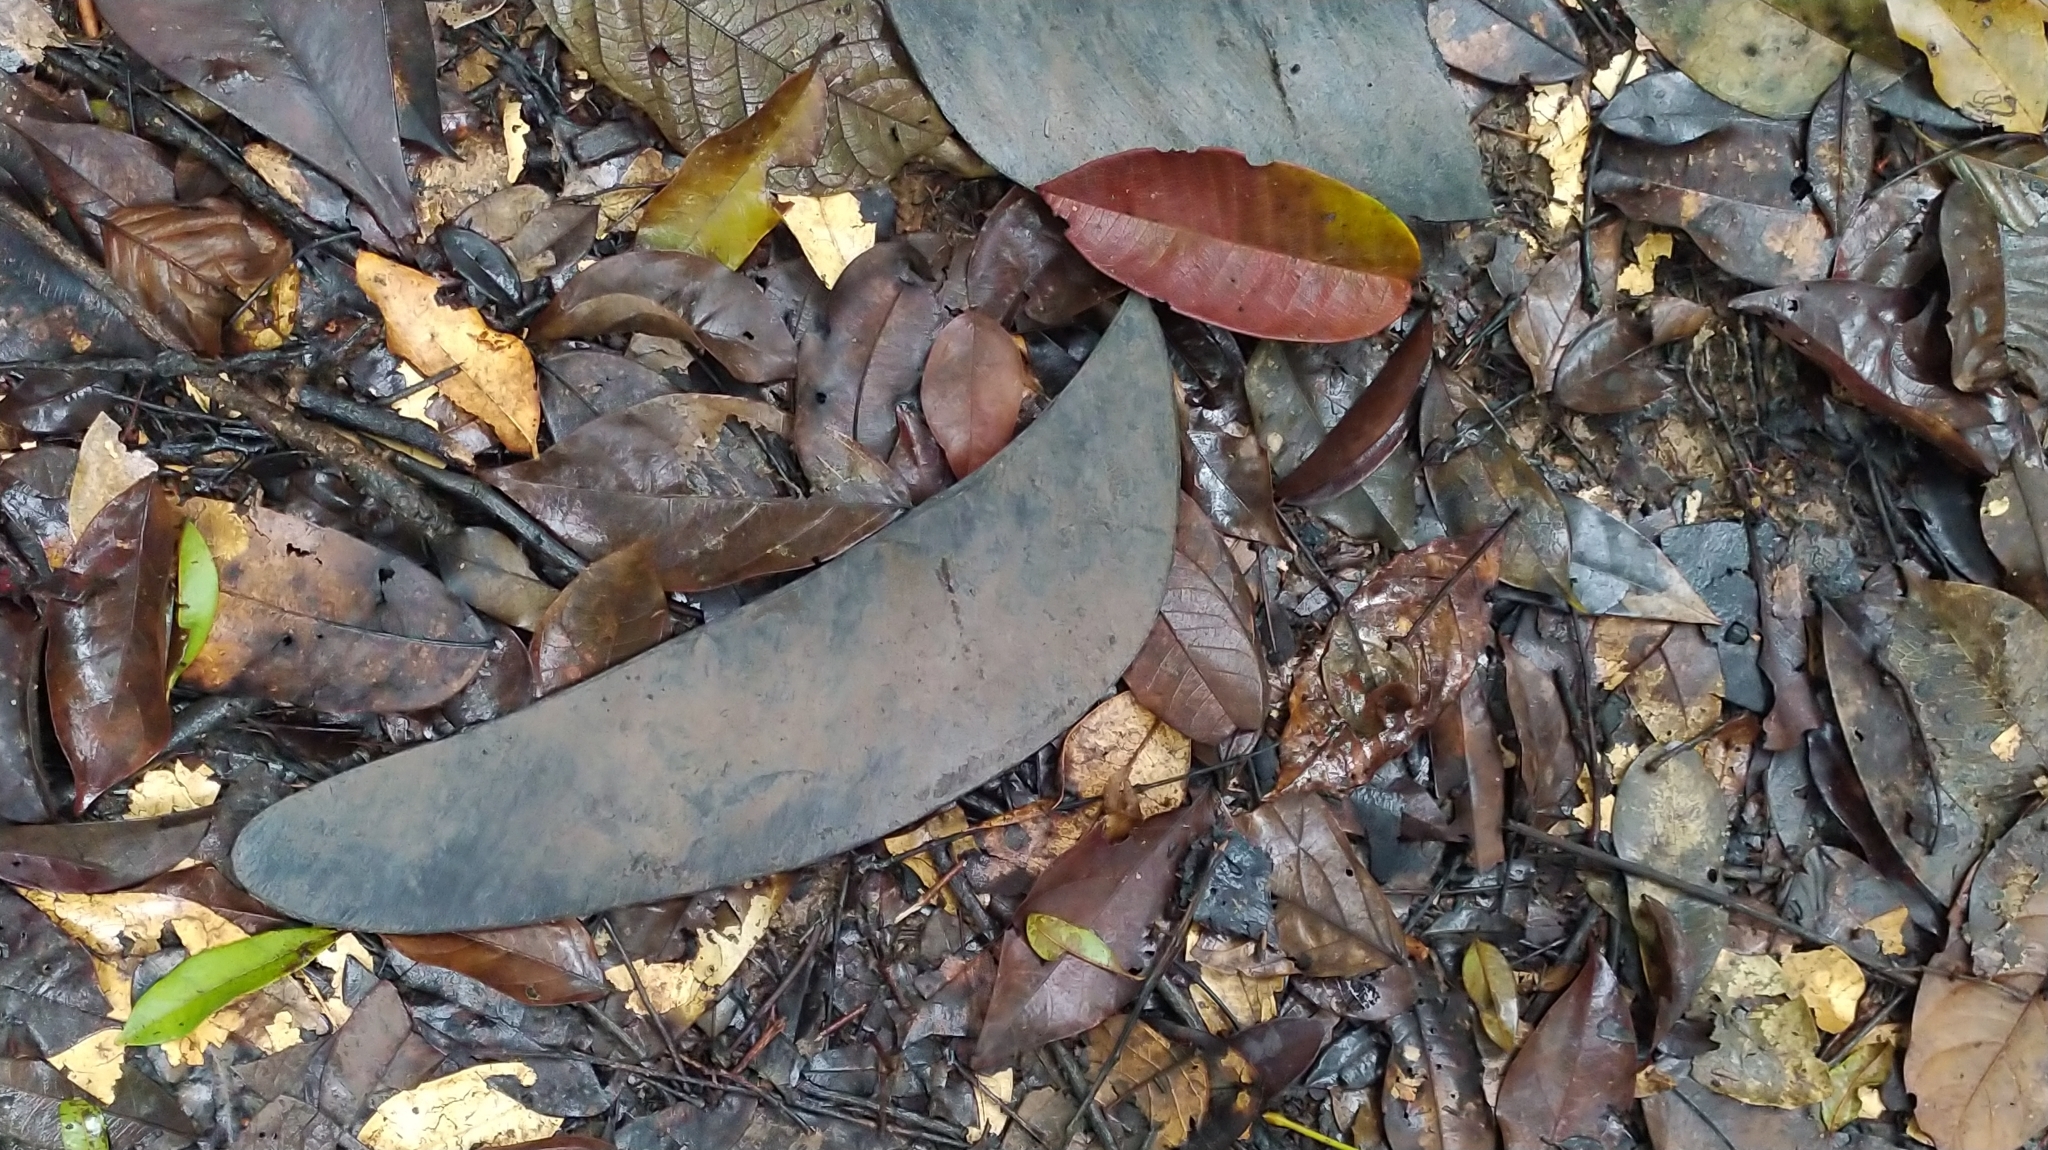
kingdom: Plantae
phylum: Tracheophyta
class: Magnoliopsida
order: Fabales
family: Fabaceae
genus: Eperua
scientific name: Eperua falcata
